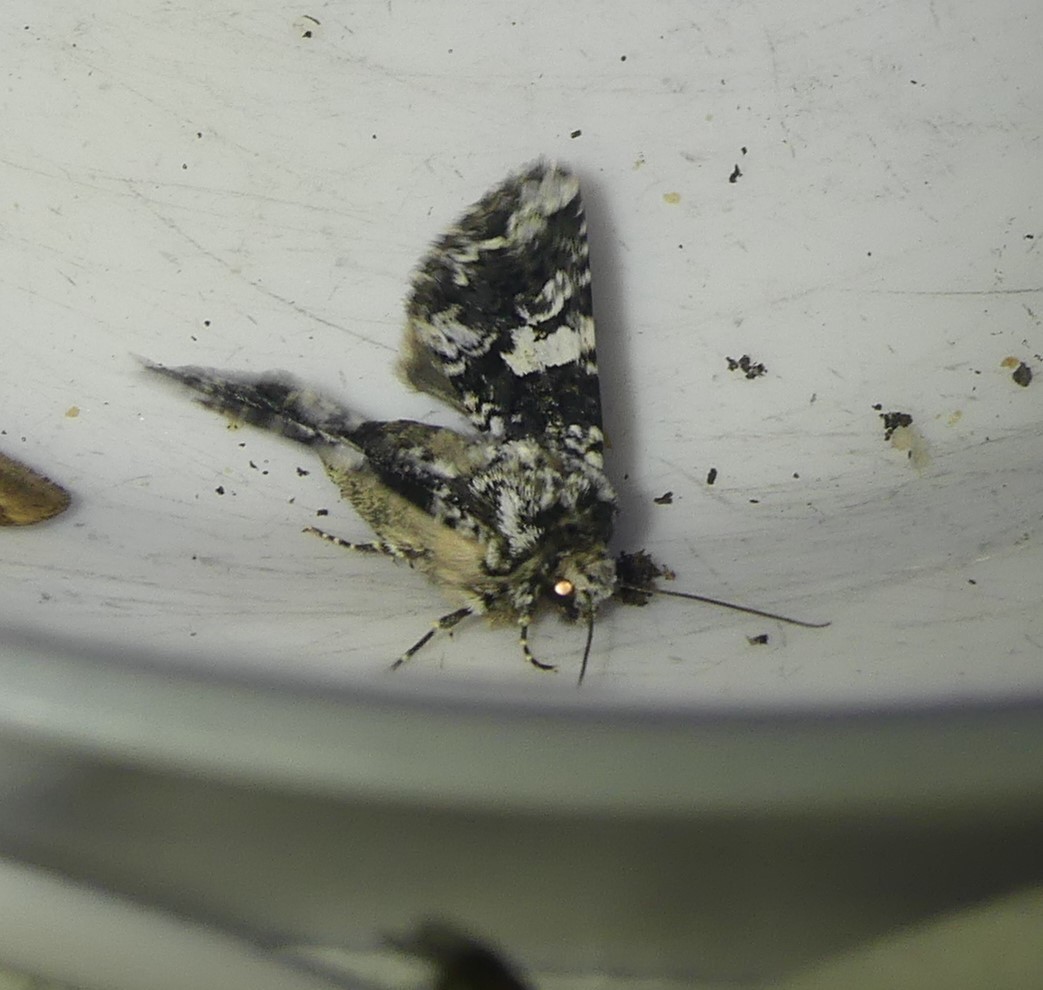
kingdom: Animalia
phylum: Arthropoda
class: Insecta
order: Lepidoptera
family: Noctuidae
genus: Hadena
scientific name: Hadena confusa
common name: Marbled coronet
